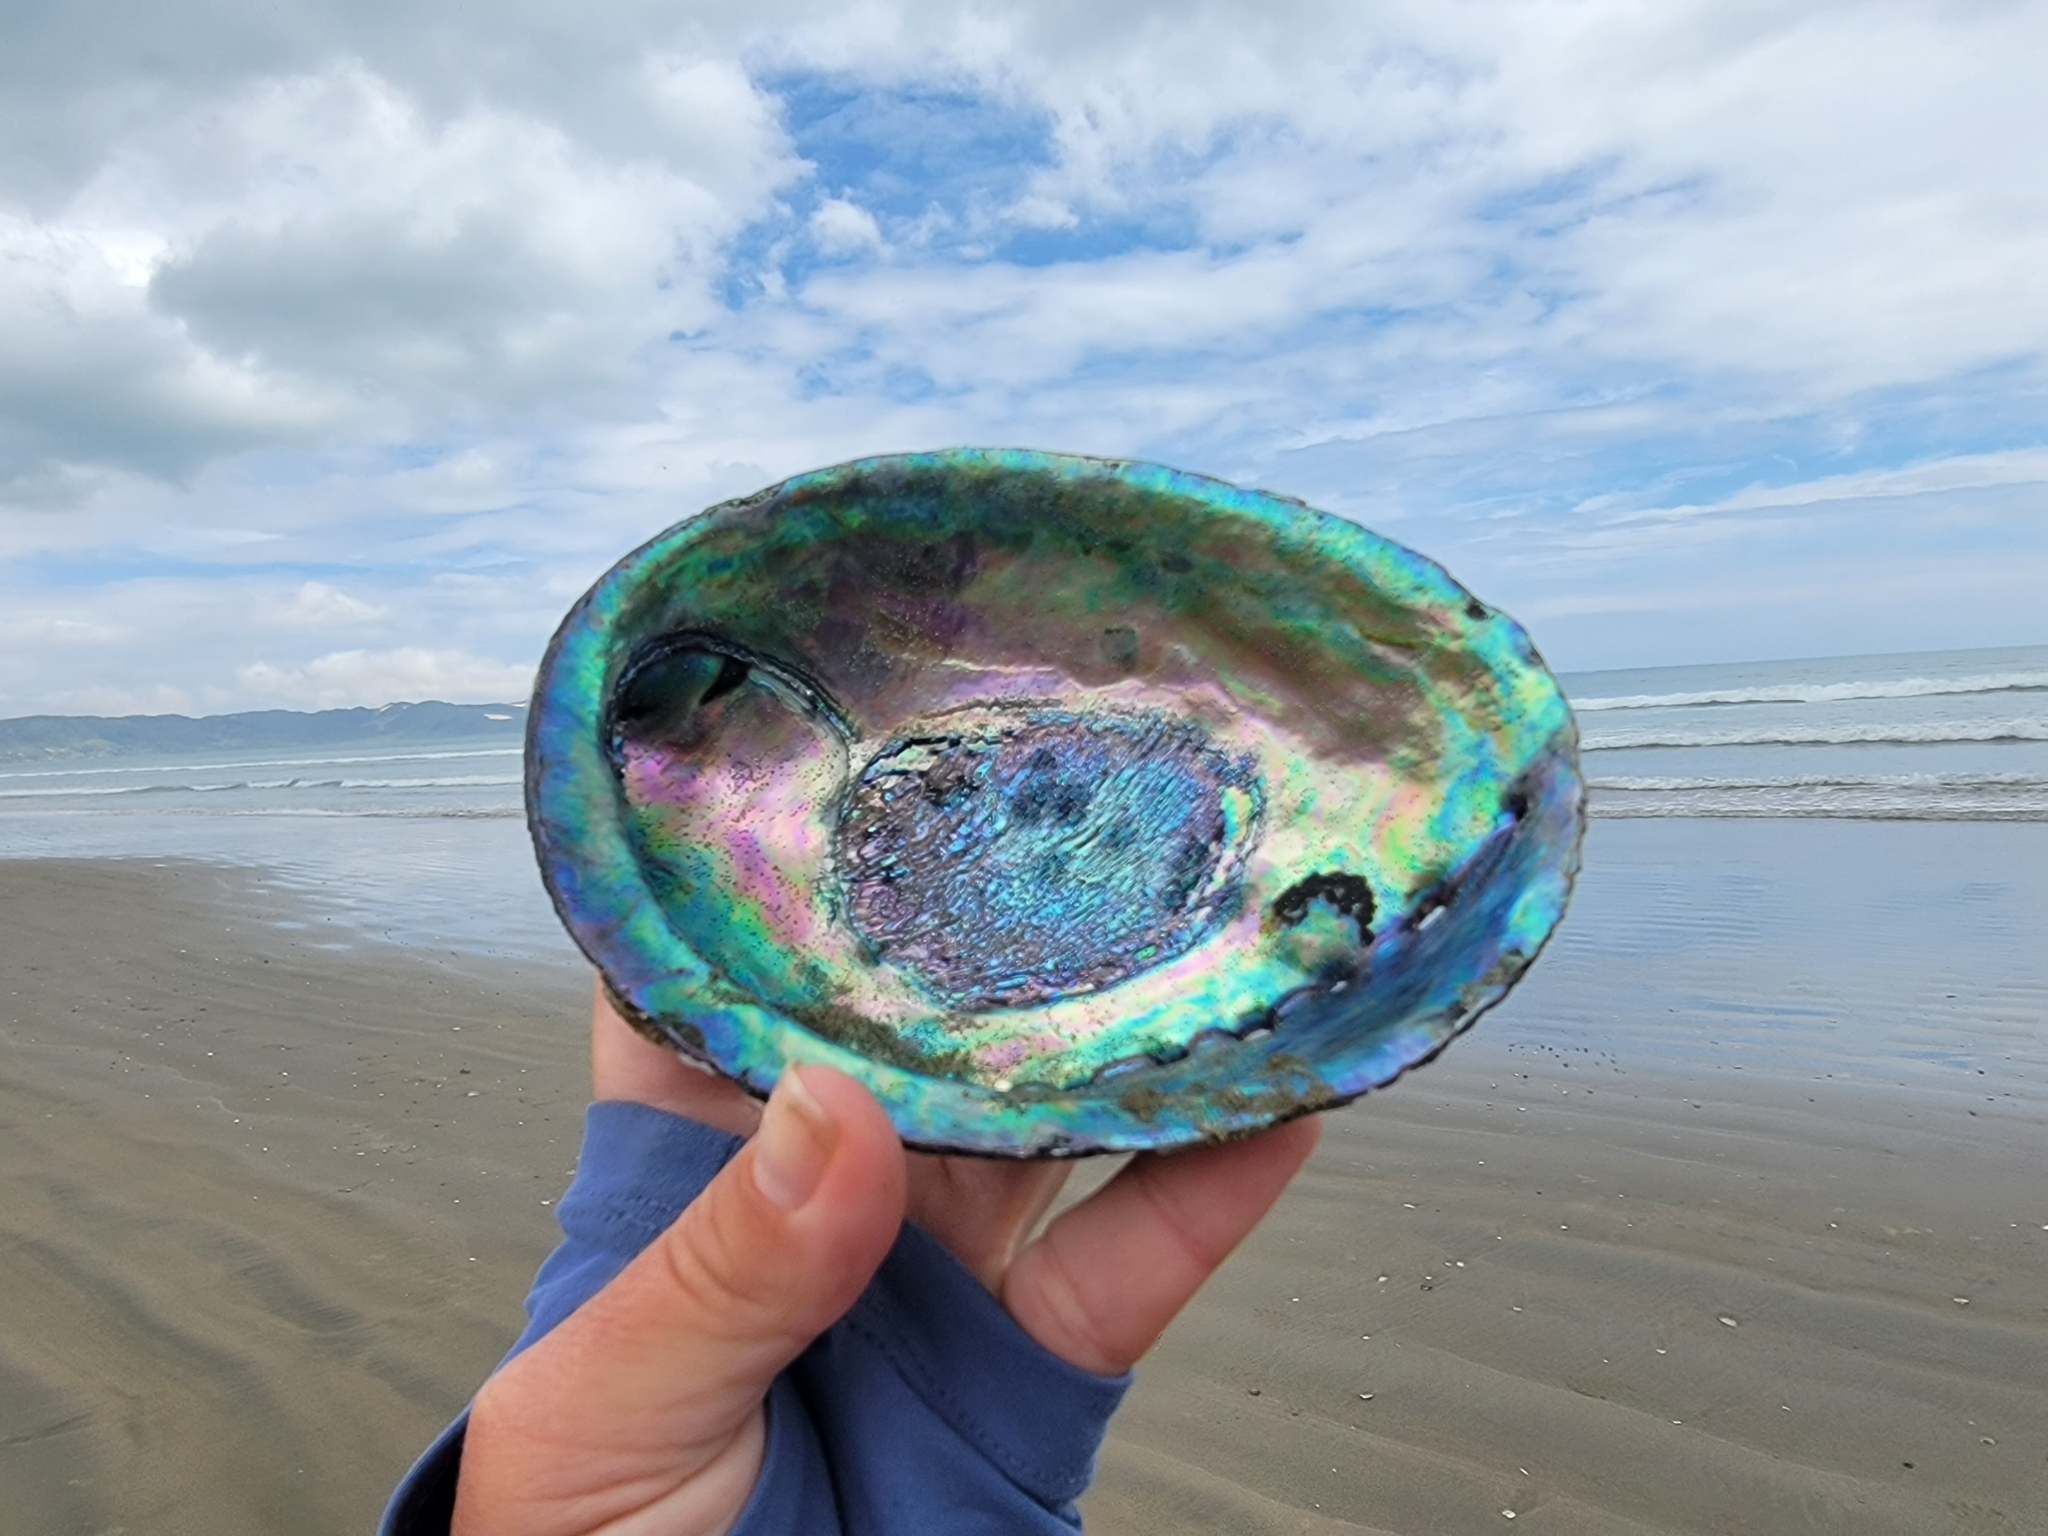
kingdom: Animalia
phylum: Mollusca
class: Gastropoda
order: Lepetellida
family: Haliotidae
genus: Haliotis
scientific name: Haliotis iris
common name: Abalone
